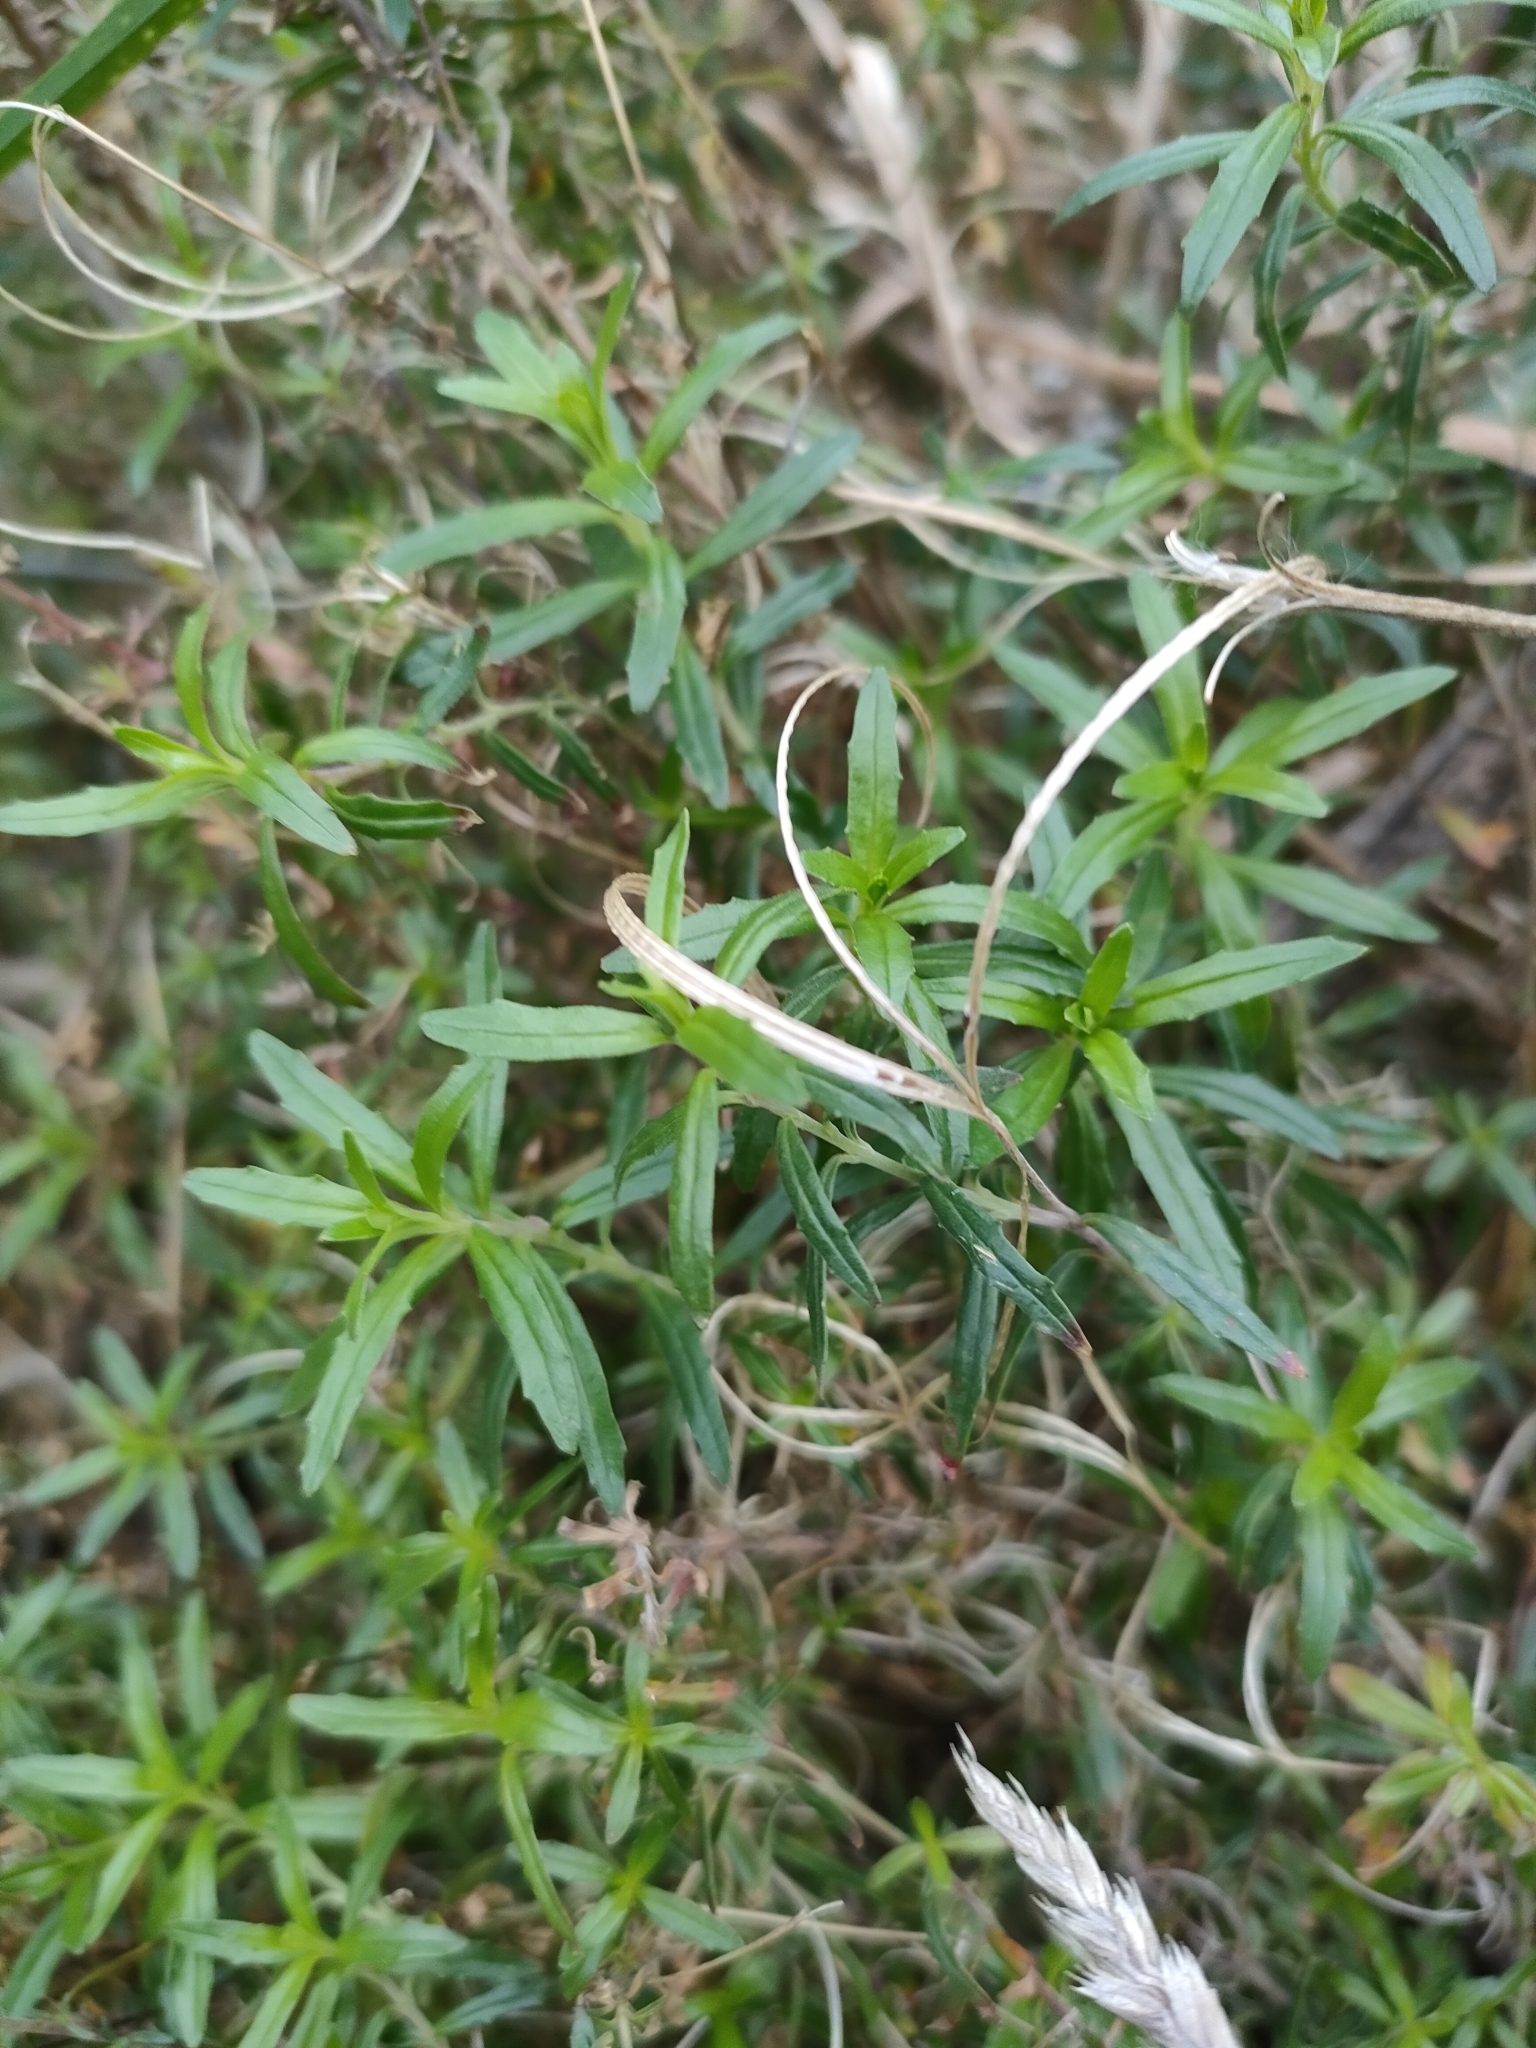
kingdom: Plantae
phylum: Tracheophyta
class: Magnoliopsida
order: Myrtales
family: Onagraceae
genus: Epilobium
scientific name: Epilobium billardierianum
